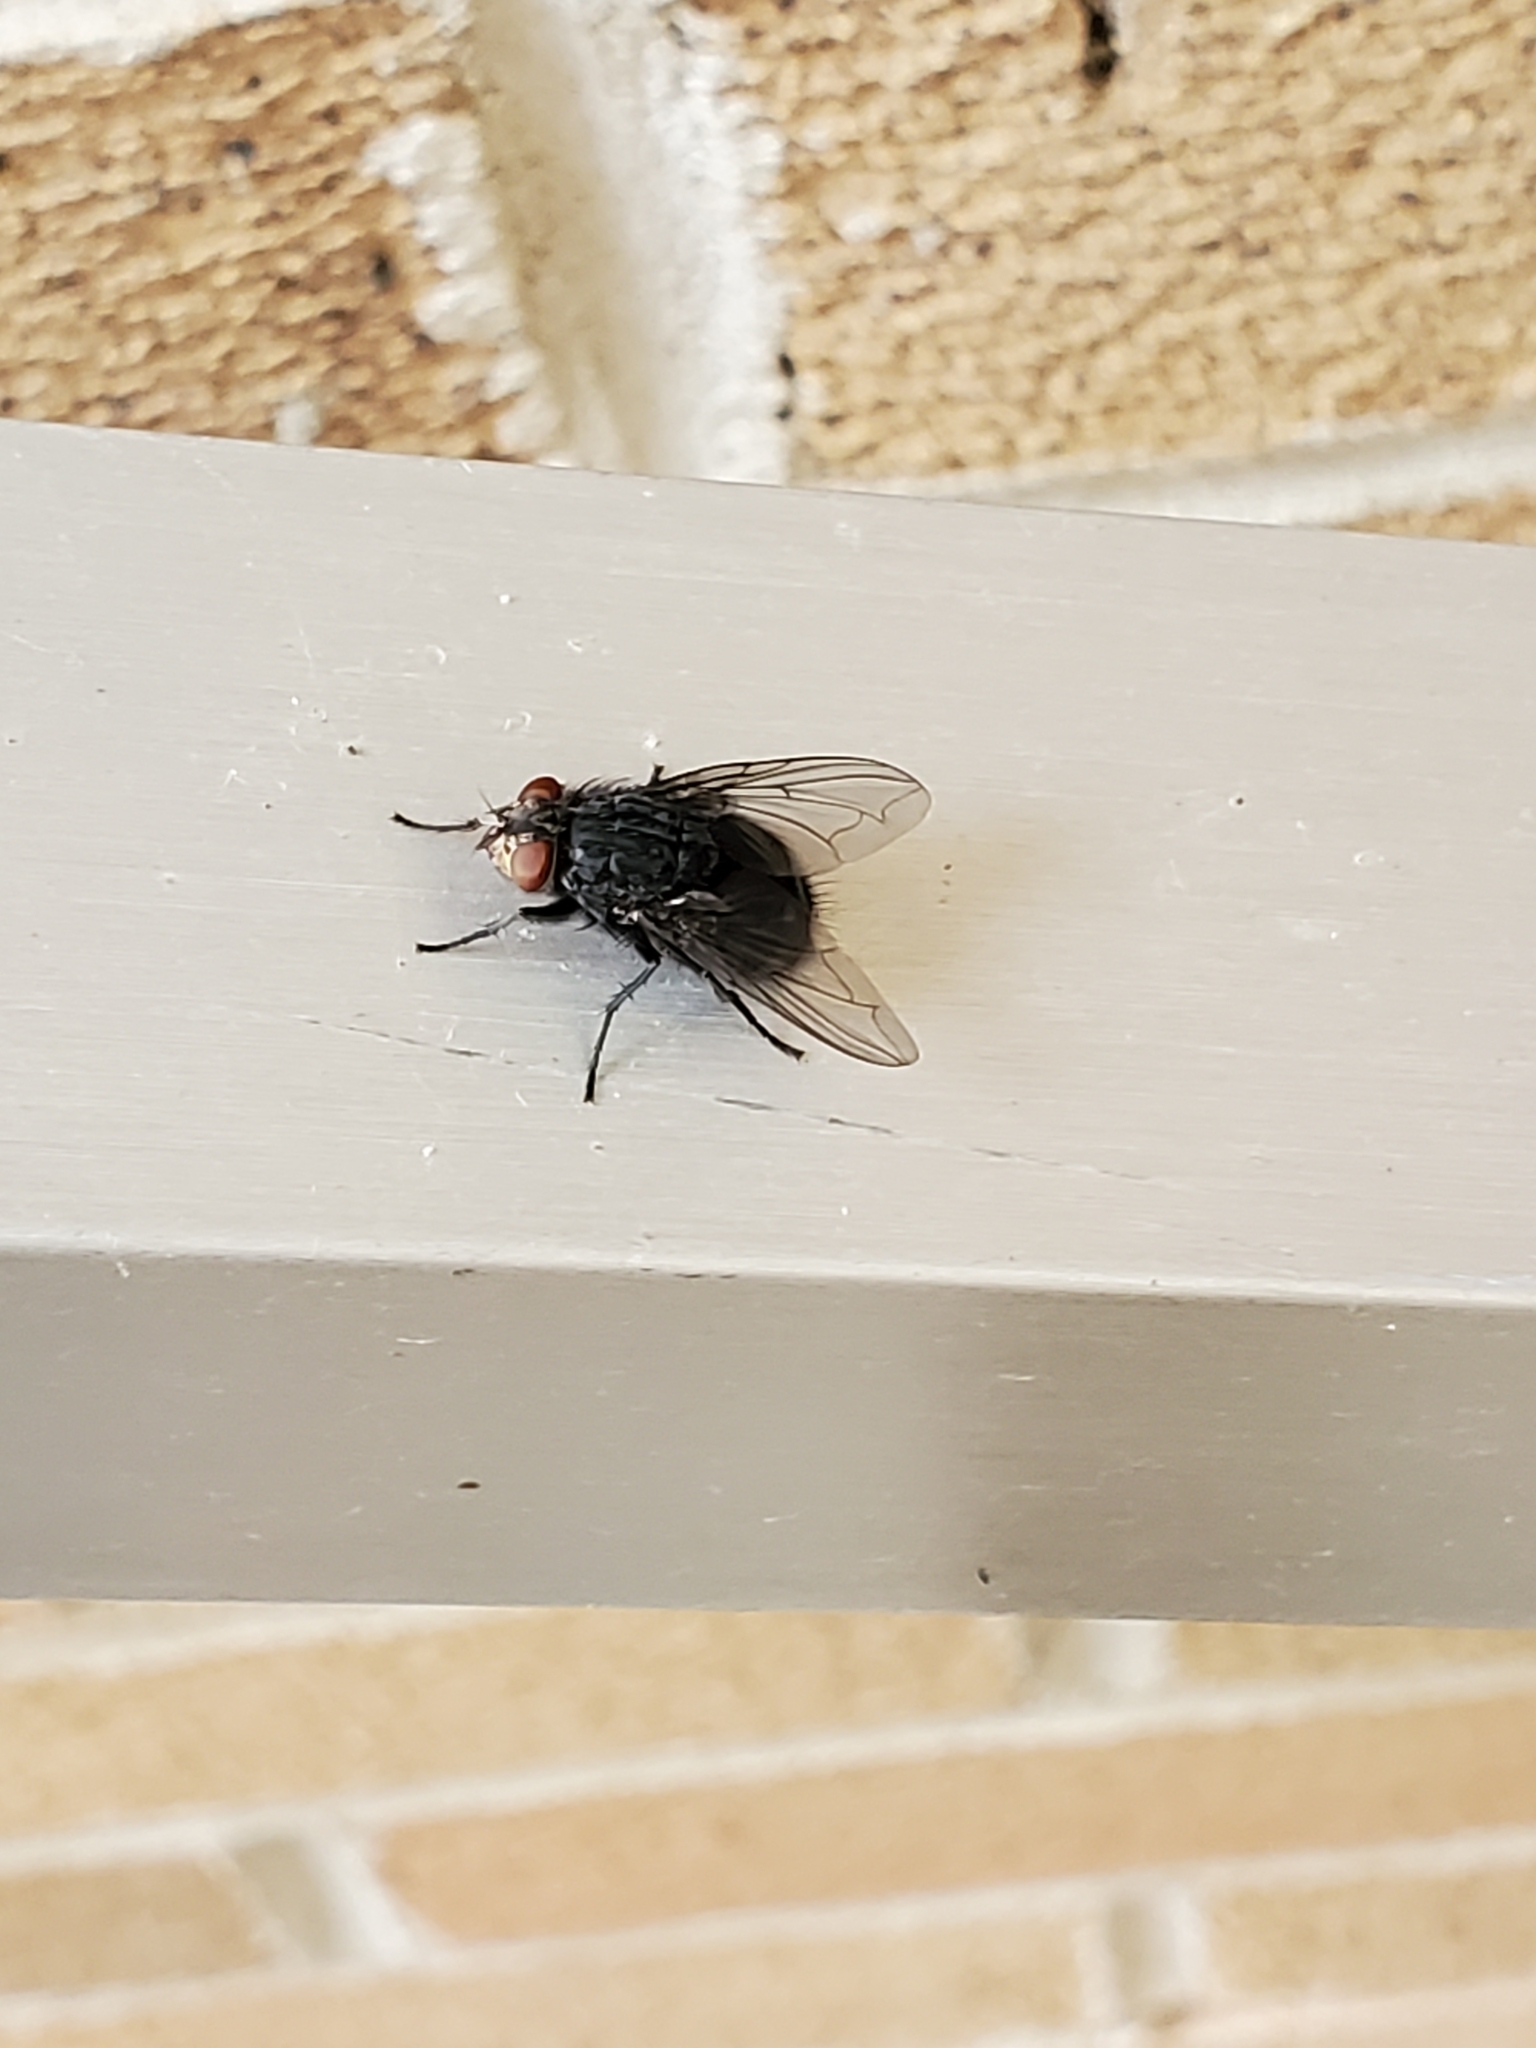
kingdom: Animalia
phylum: Arthropoda
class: Insecta
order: Diptera
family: Calliphoridae
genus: Calliphora
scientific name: Calliphora vicina
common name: Common blow flie
